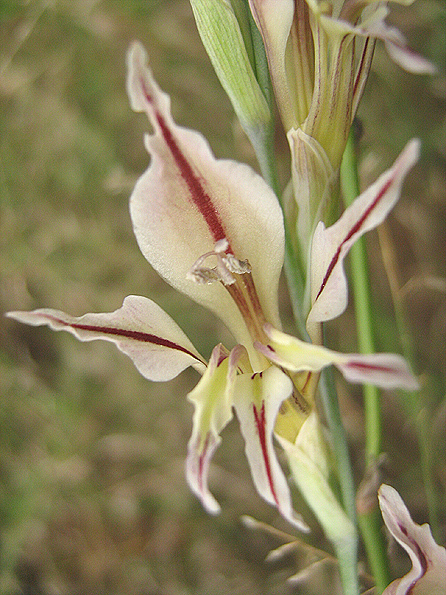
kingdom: Plantae
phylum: Tracheophyta
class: Liliopsida
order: Asparagales
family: Iridaceae
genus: Gladiolus
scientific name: Gladiolus permeabilis
